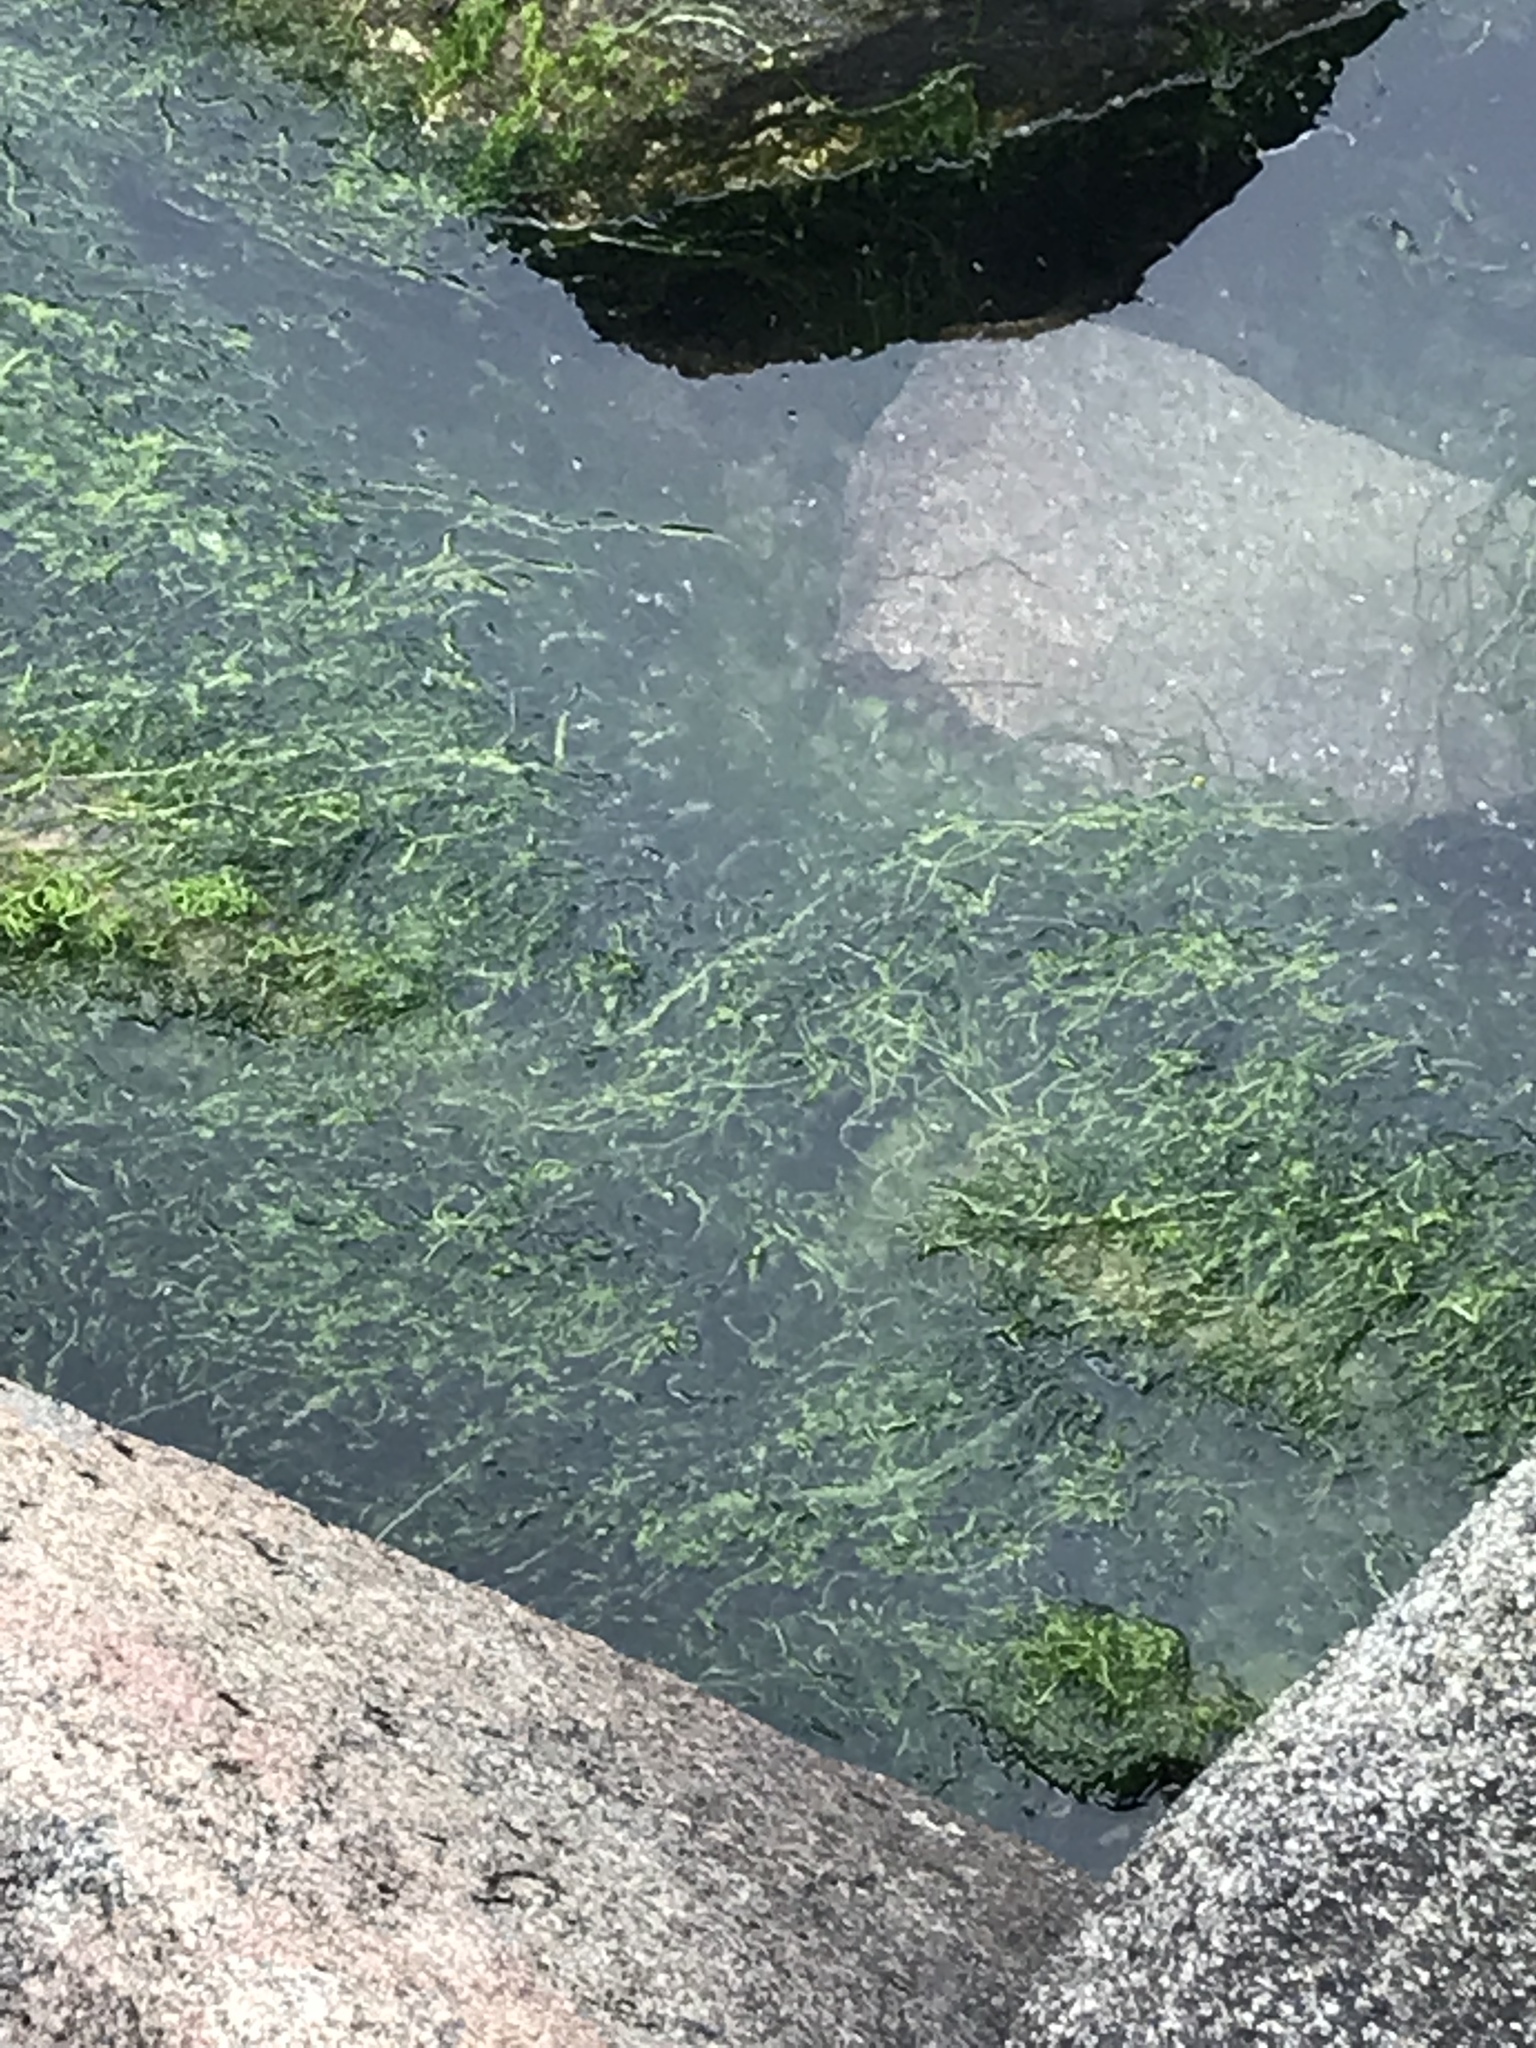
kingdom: Plantae
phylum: Chlorophyta
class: Ulvophyceae
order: Ulvales
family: Ulvaceae
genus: Ulva
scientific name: Ulva intestinalis
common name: Gut weed
